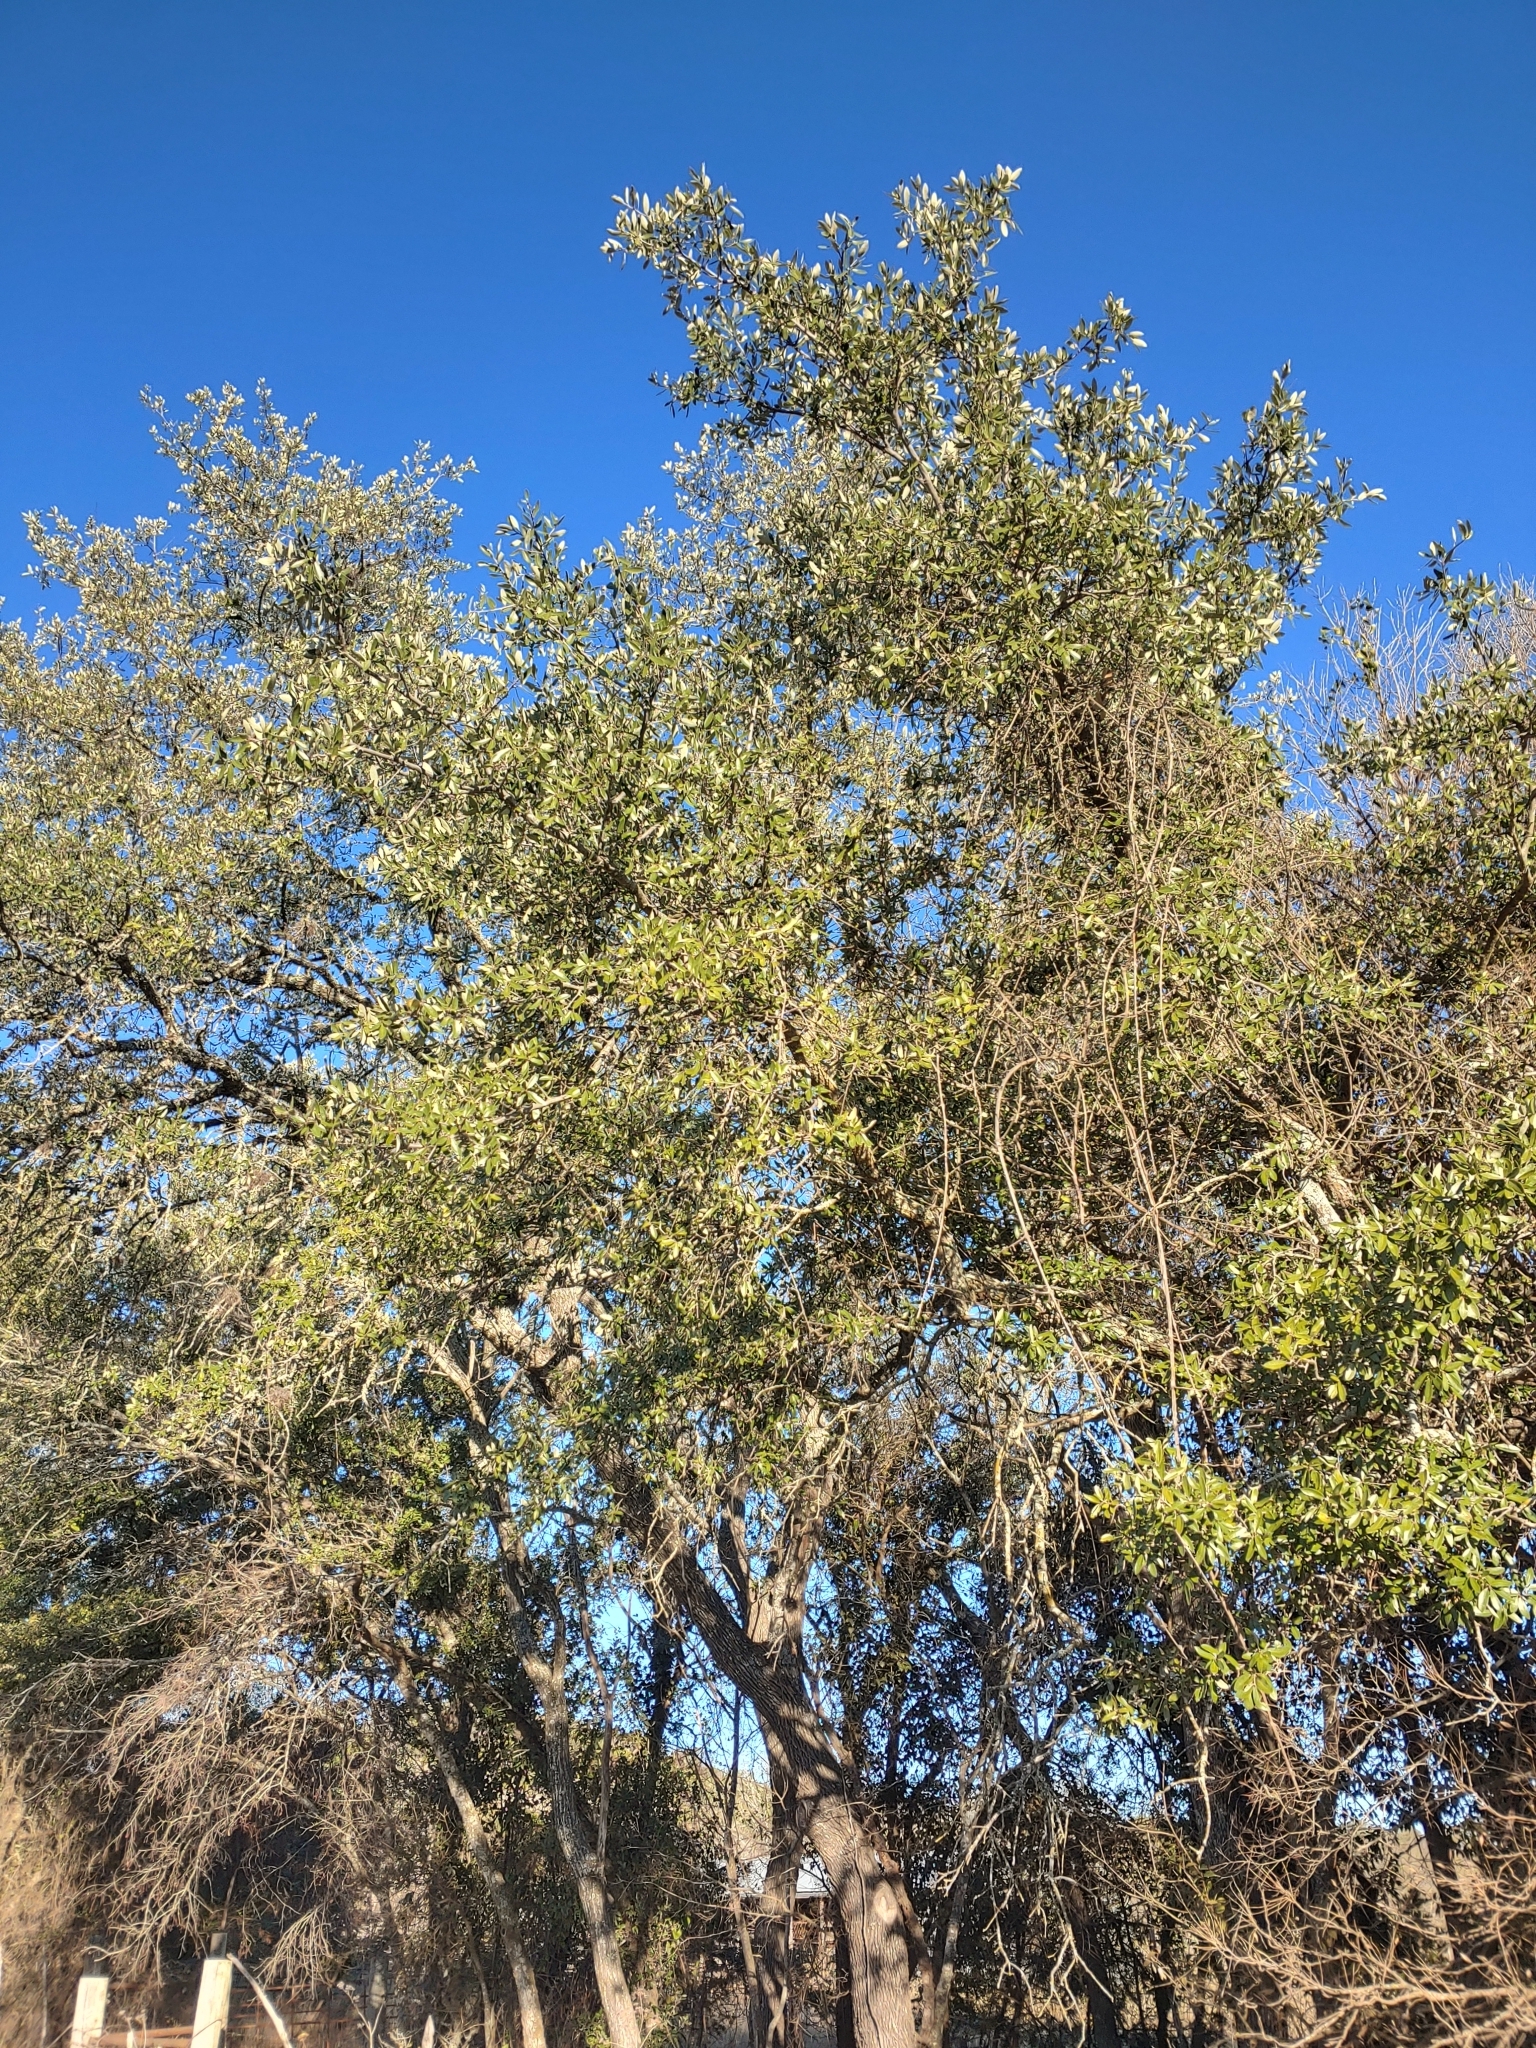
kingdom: Plantae
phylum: Tracheophyta
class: Magnoliopsida
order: Fagales
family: Fagaceae
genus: Quercus
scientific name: Quercus fusiformis
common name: Texas live oak
